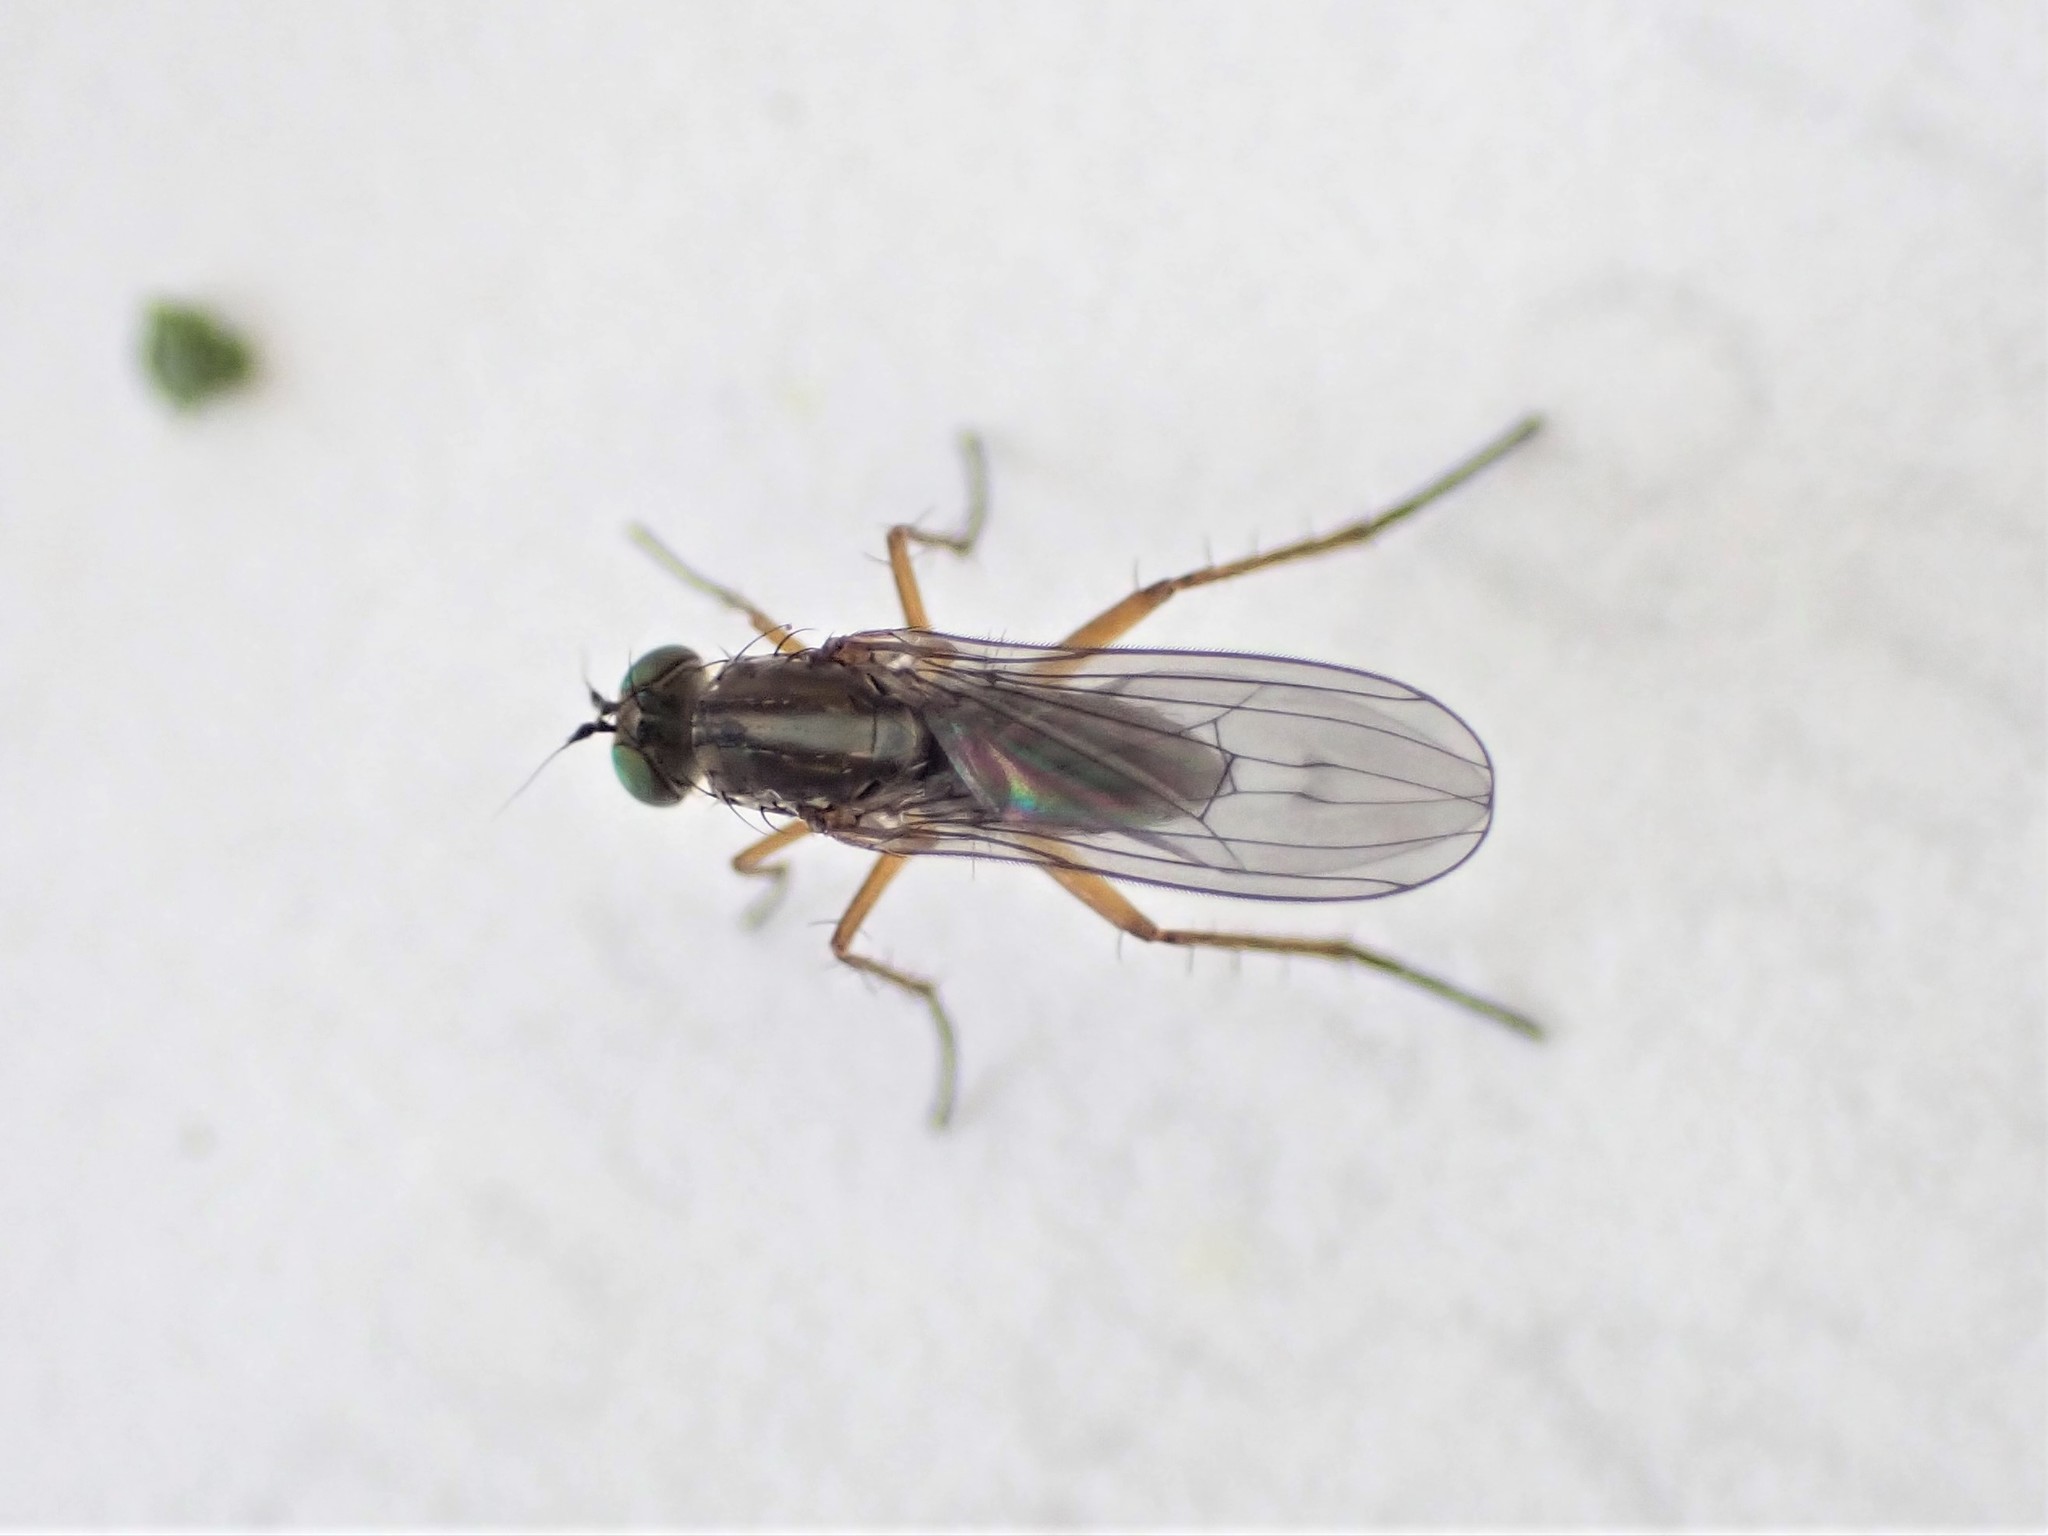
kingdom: Animalia
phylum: Arthropoda
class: Insecta
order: Diptera
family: Dolichopodidae
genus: Tetrachaetus
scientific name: Tetrachaetus bipunctatus
